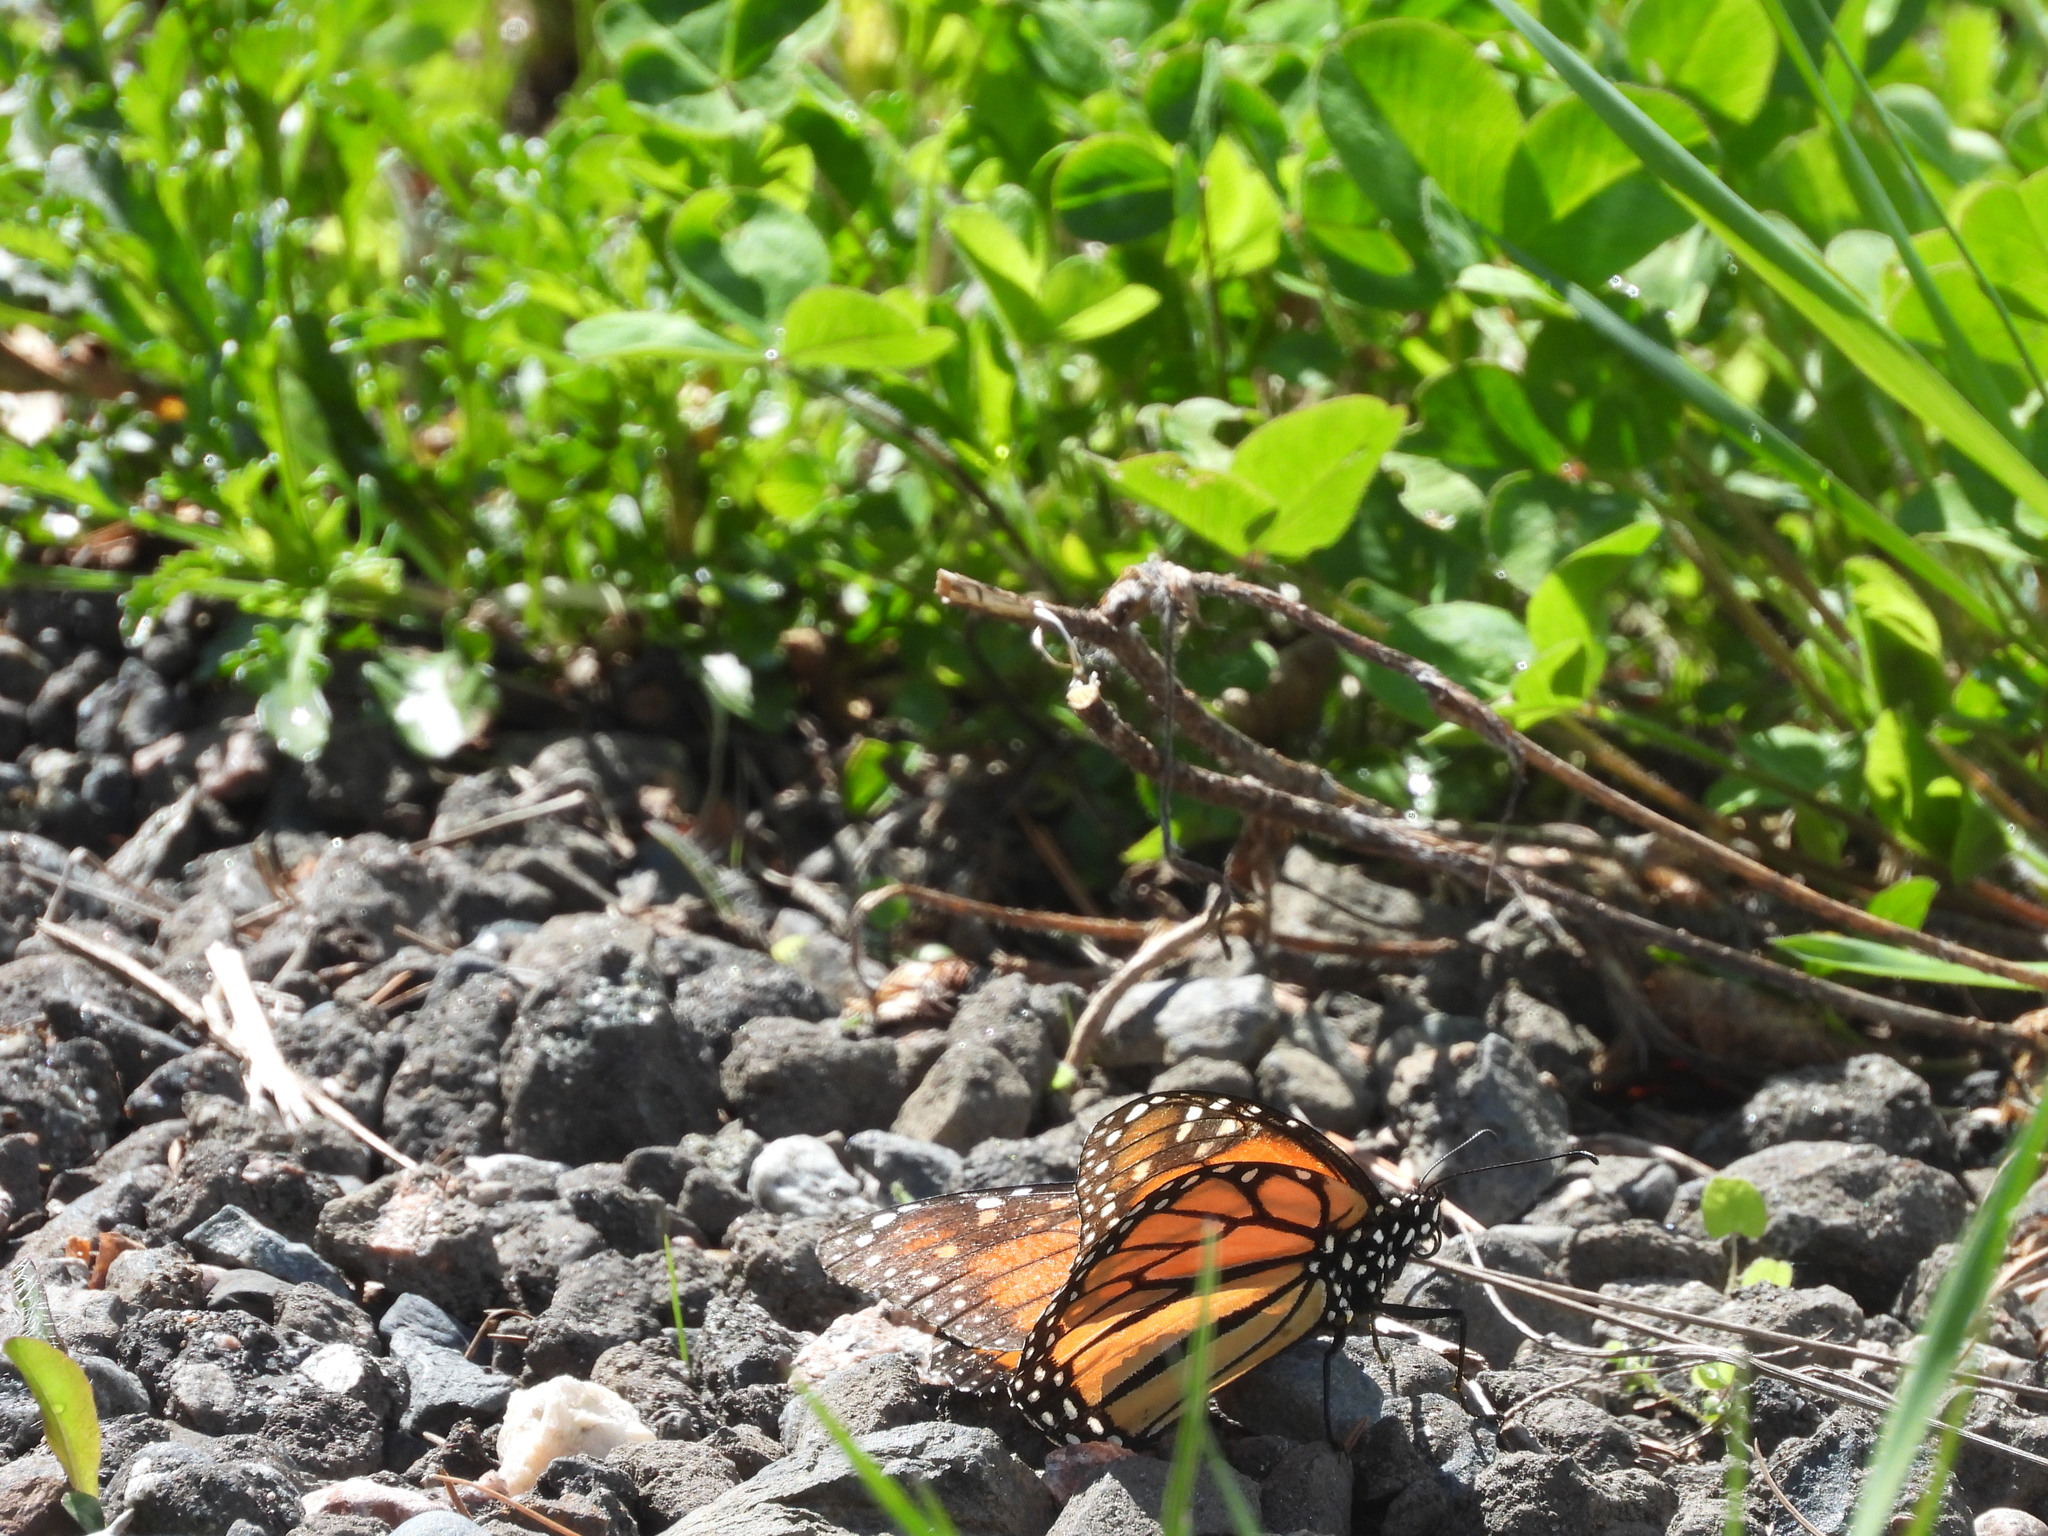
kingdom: Animalia
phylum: Arthropoda
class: Insecta
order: Lepidoptera
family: Nymphalidae
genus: Danaus
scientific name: Danaus plexippus
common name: Monarch
